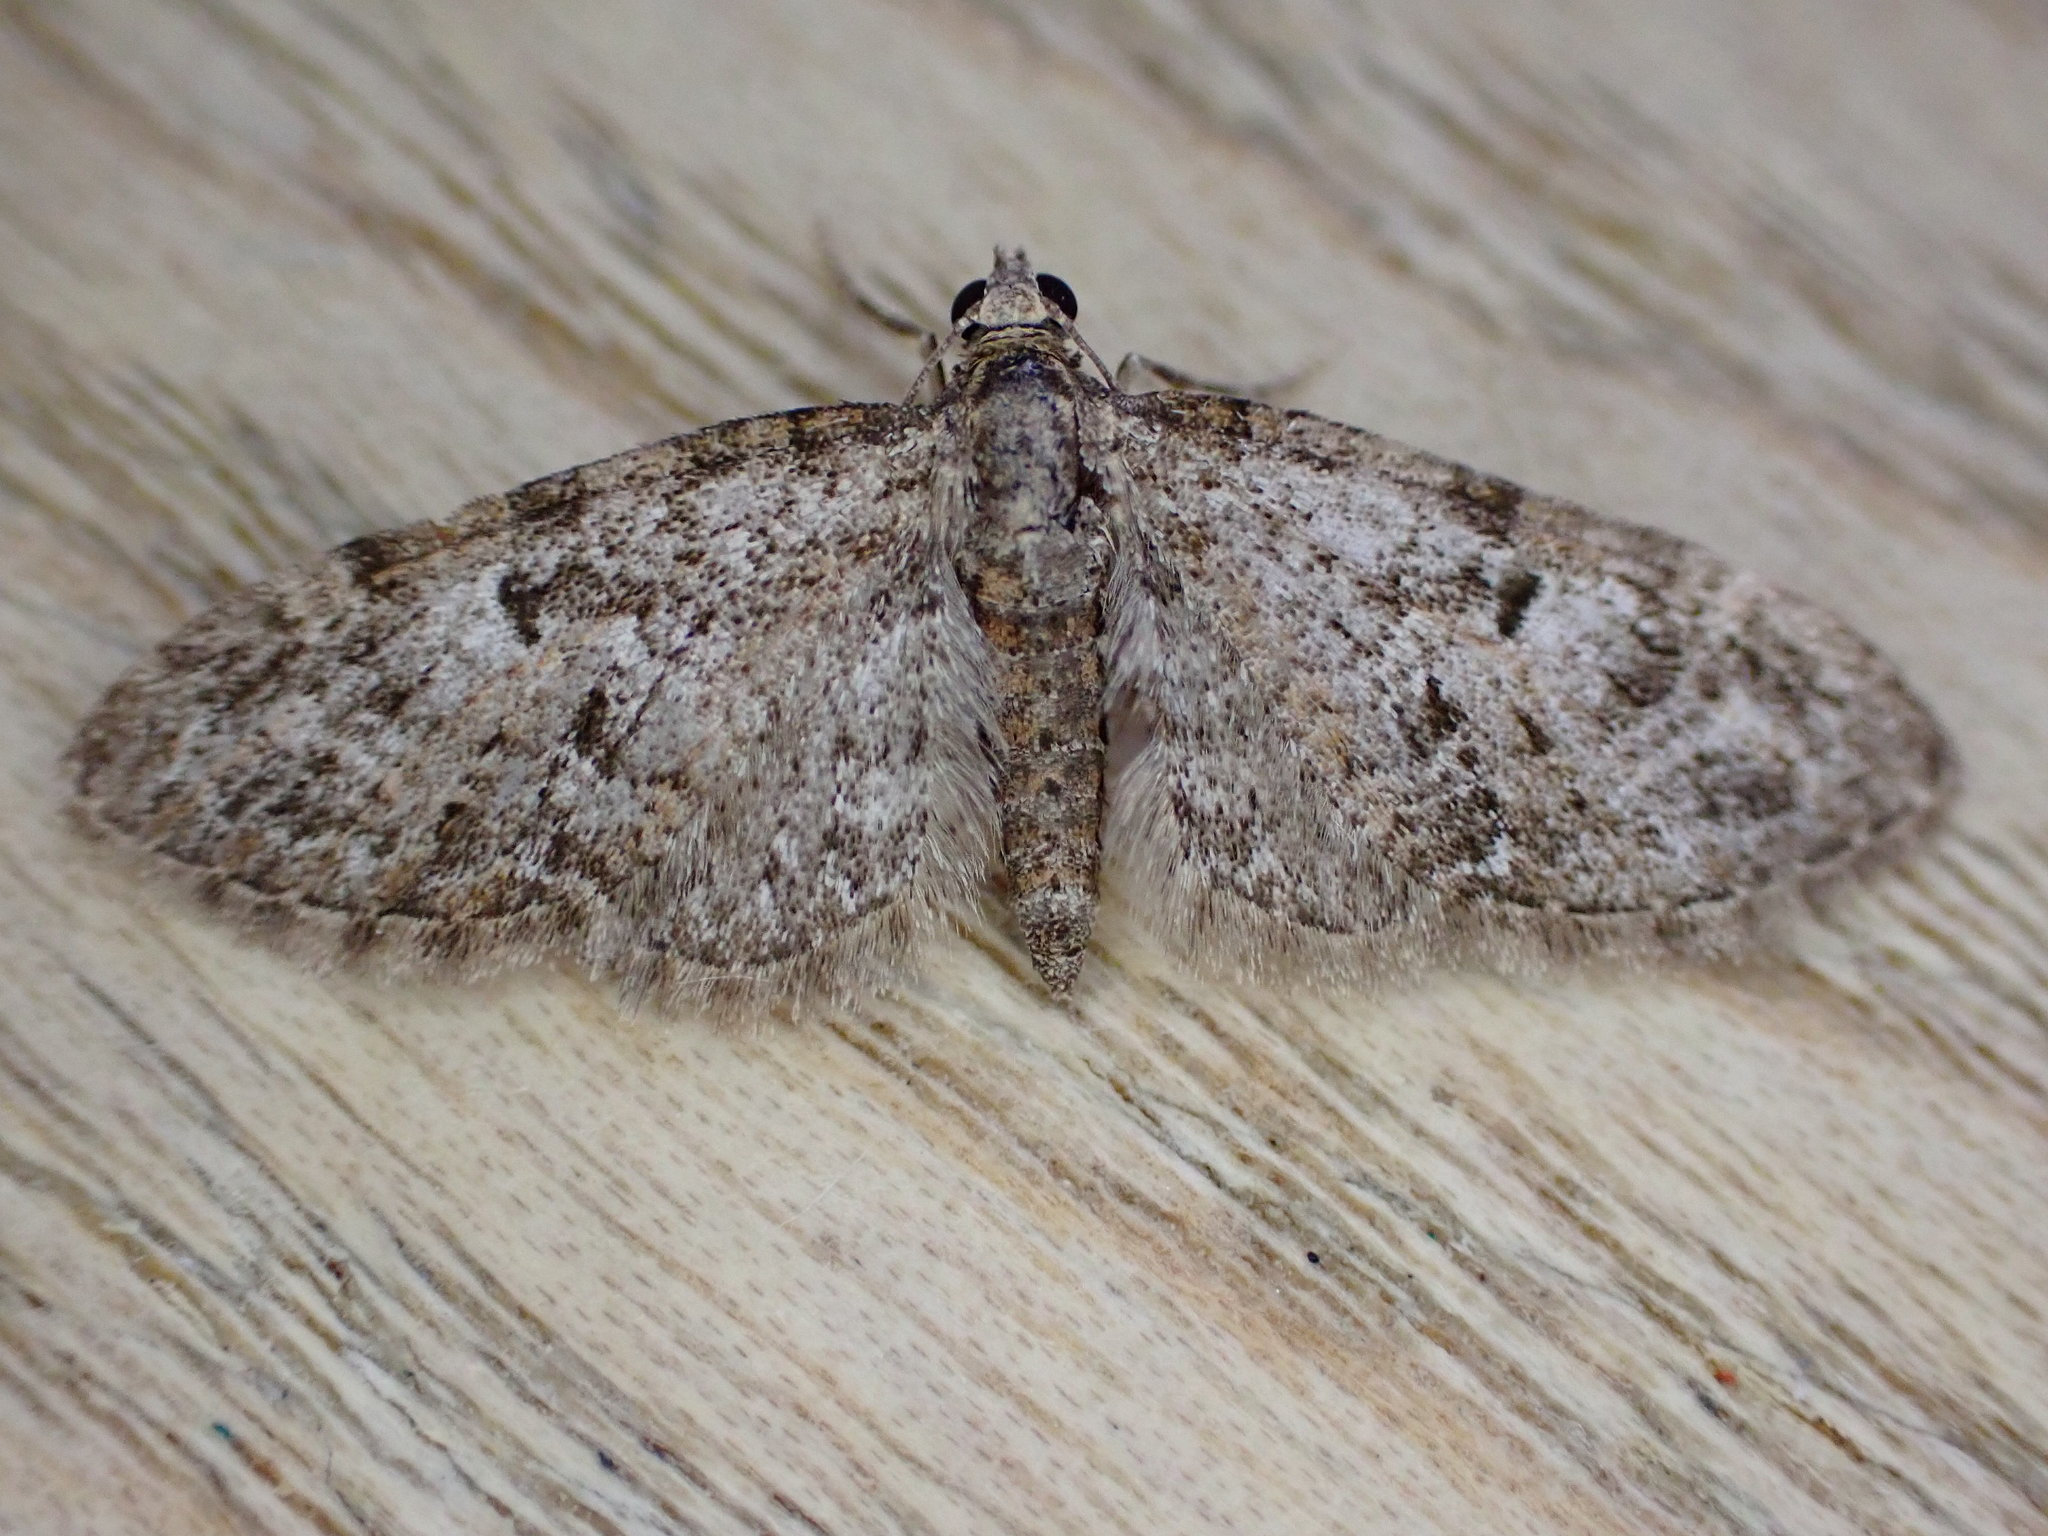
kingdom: Animalia
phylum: Arthropoda
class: Insecta
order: Lepidoptera
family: Geometridae
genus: Eupithecia
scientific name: Eupithecia dodoneata
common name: Oak-tree pug
